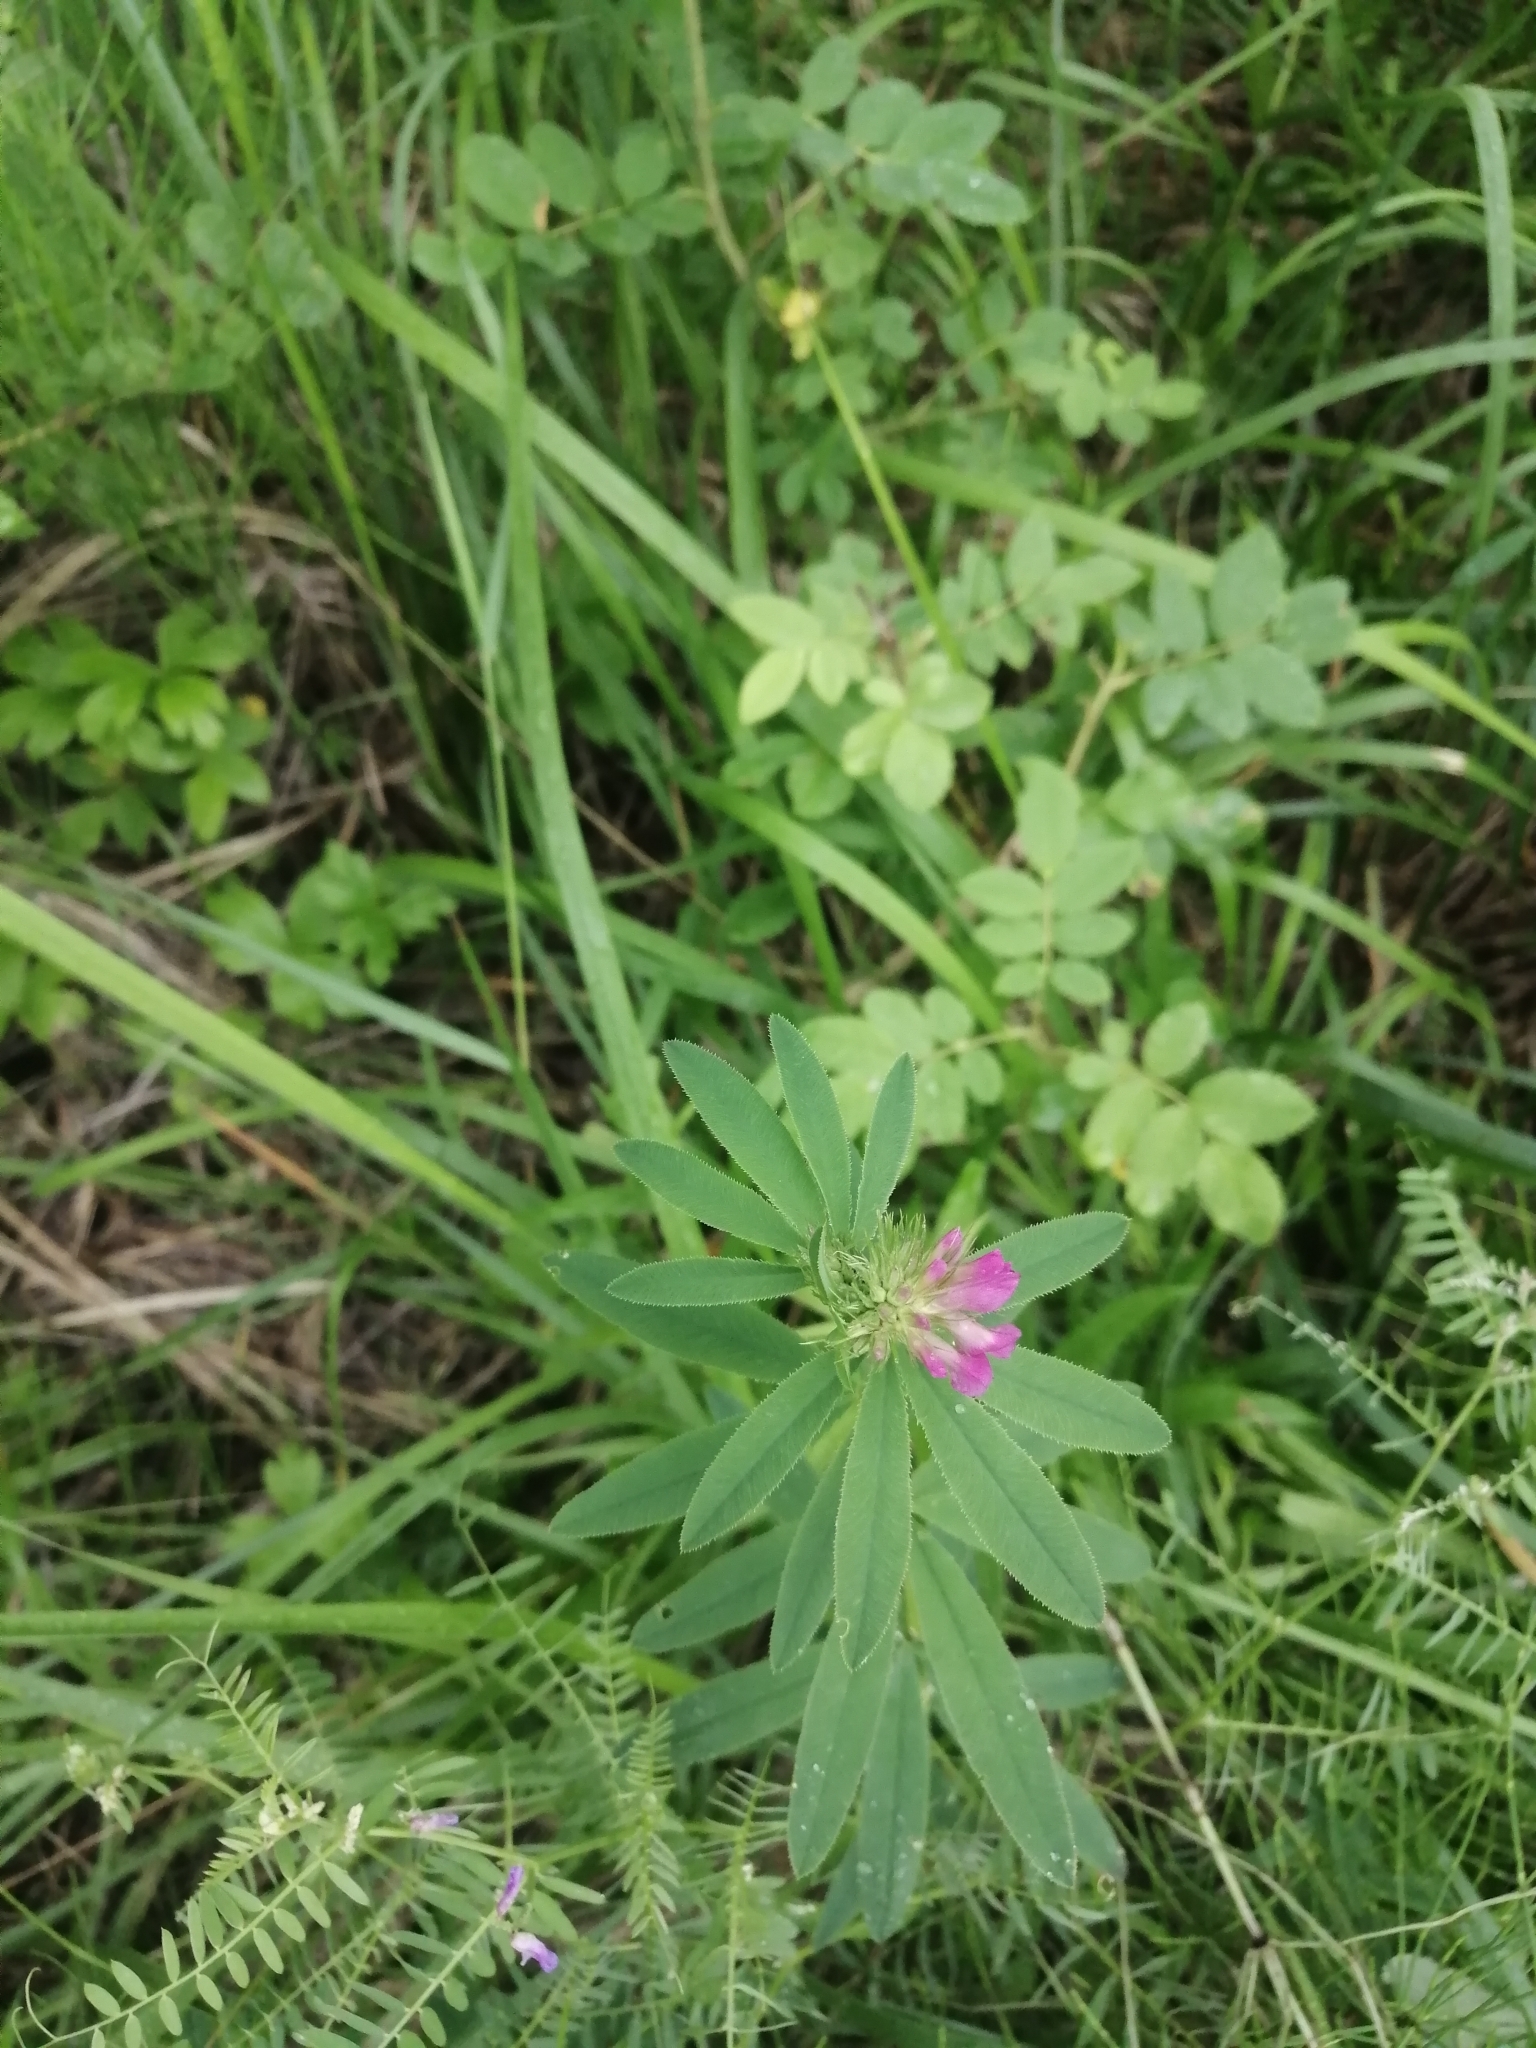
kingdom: Plantae
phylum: Tracheophyta
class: Magnoliopsida
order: Fabales
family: Fabaceae
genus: Trifolium
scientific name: Trifolium lupinaster
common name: Lupine clover
